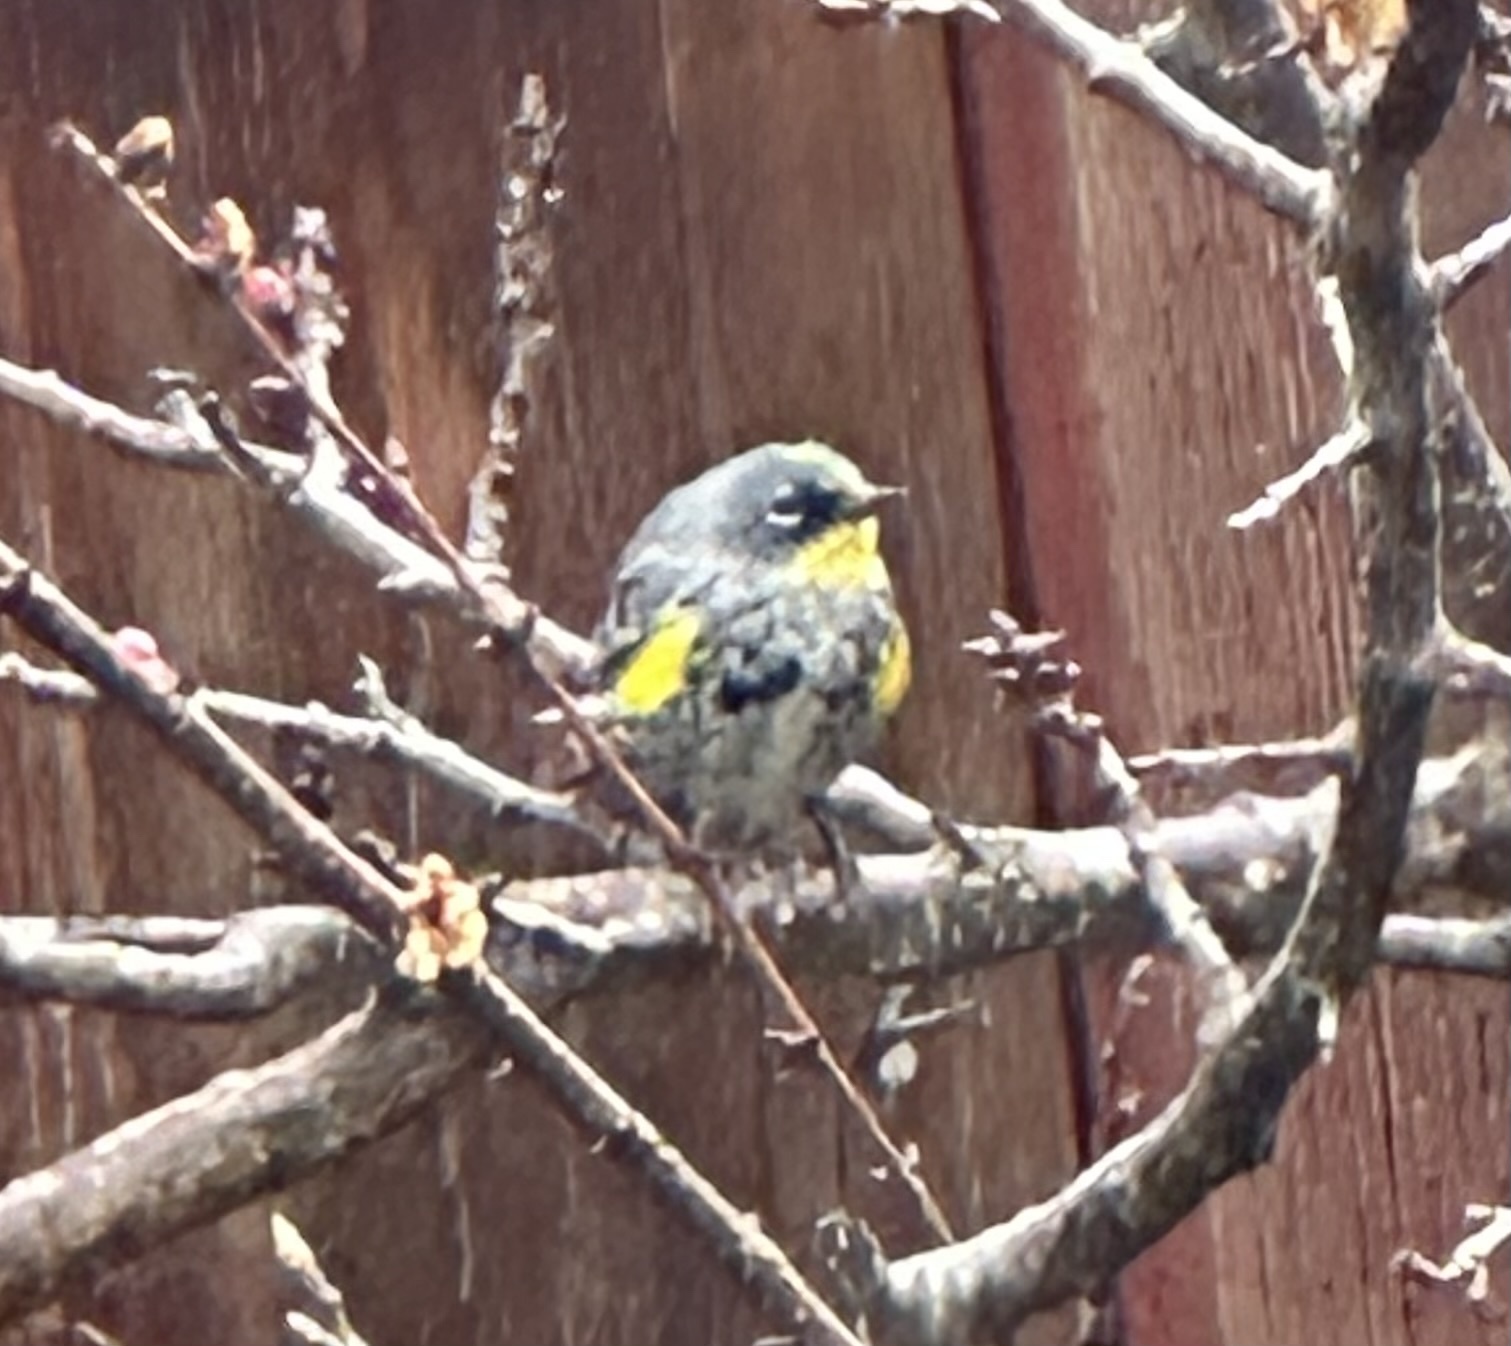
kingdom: Animalia
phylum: Chordata
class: Aves
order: Passeriformes
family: Parulidae
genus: Setophaga
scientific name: Setophaga auduboni
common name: Audubon's warbler
